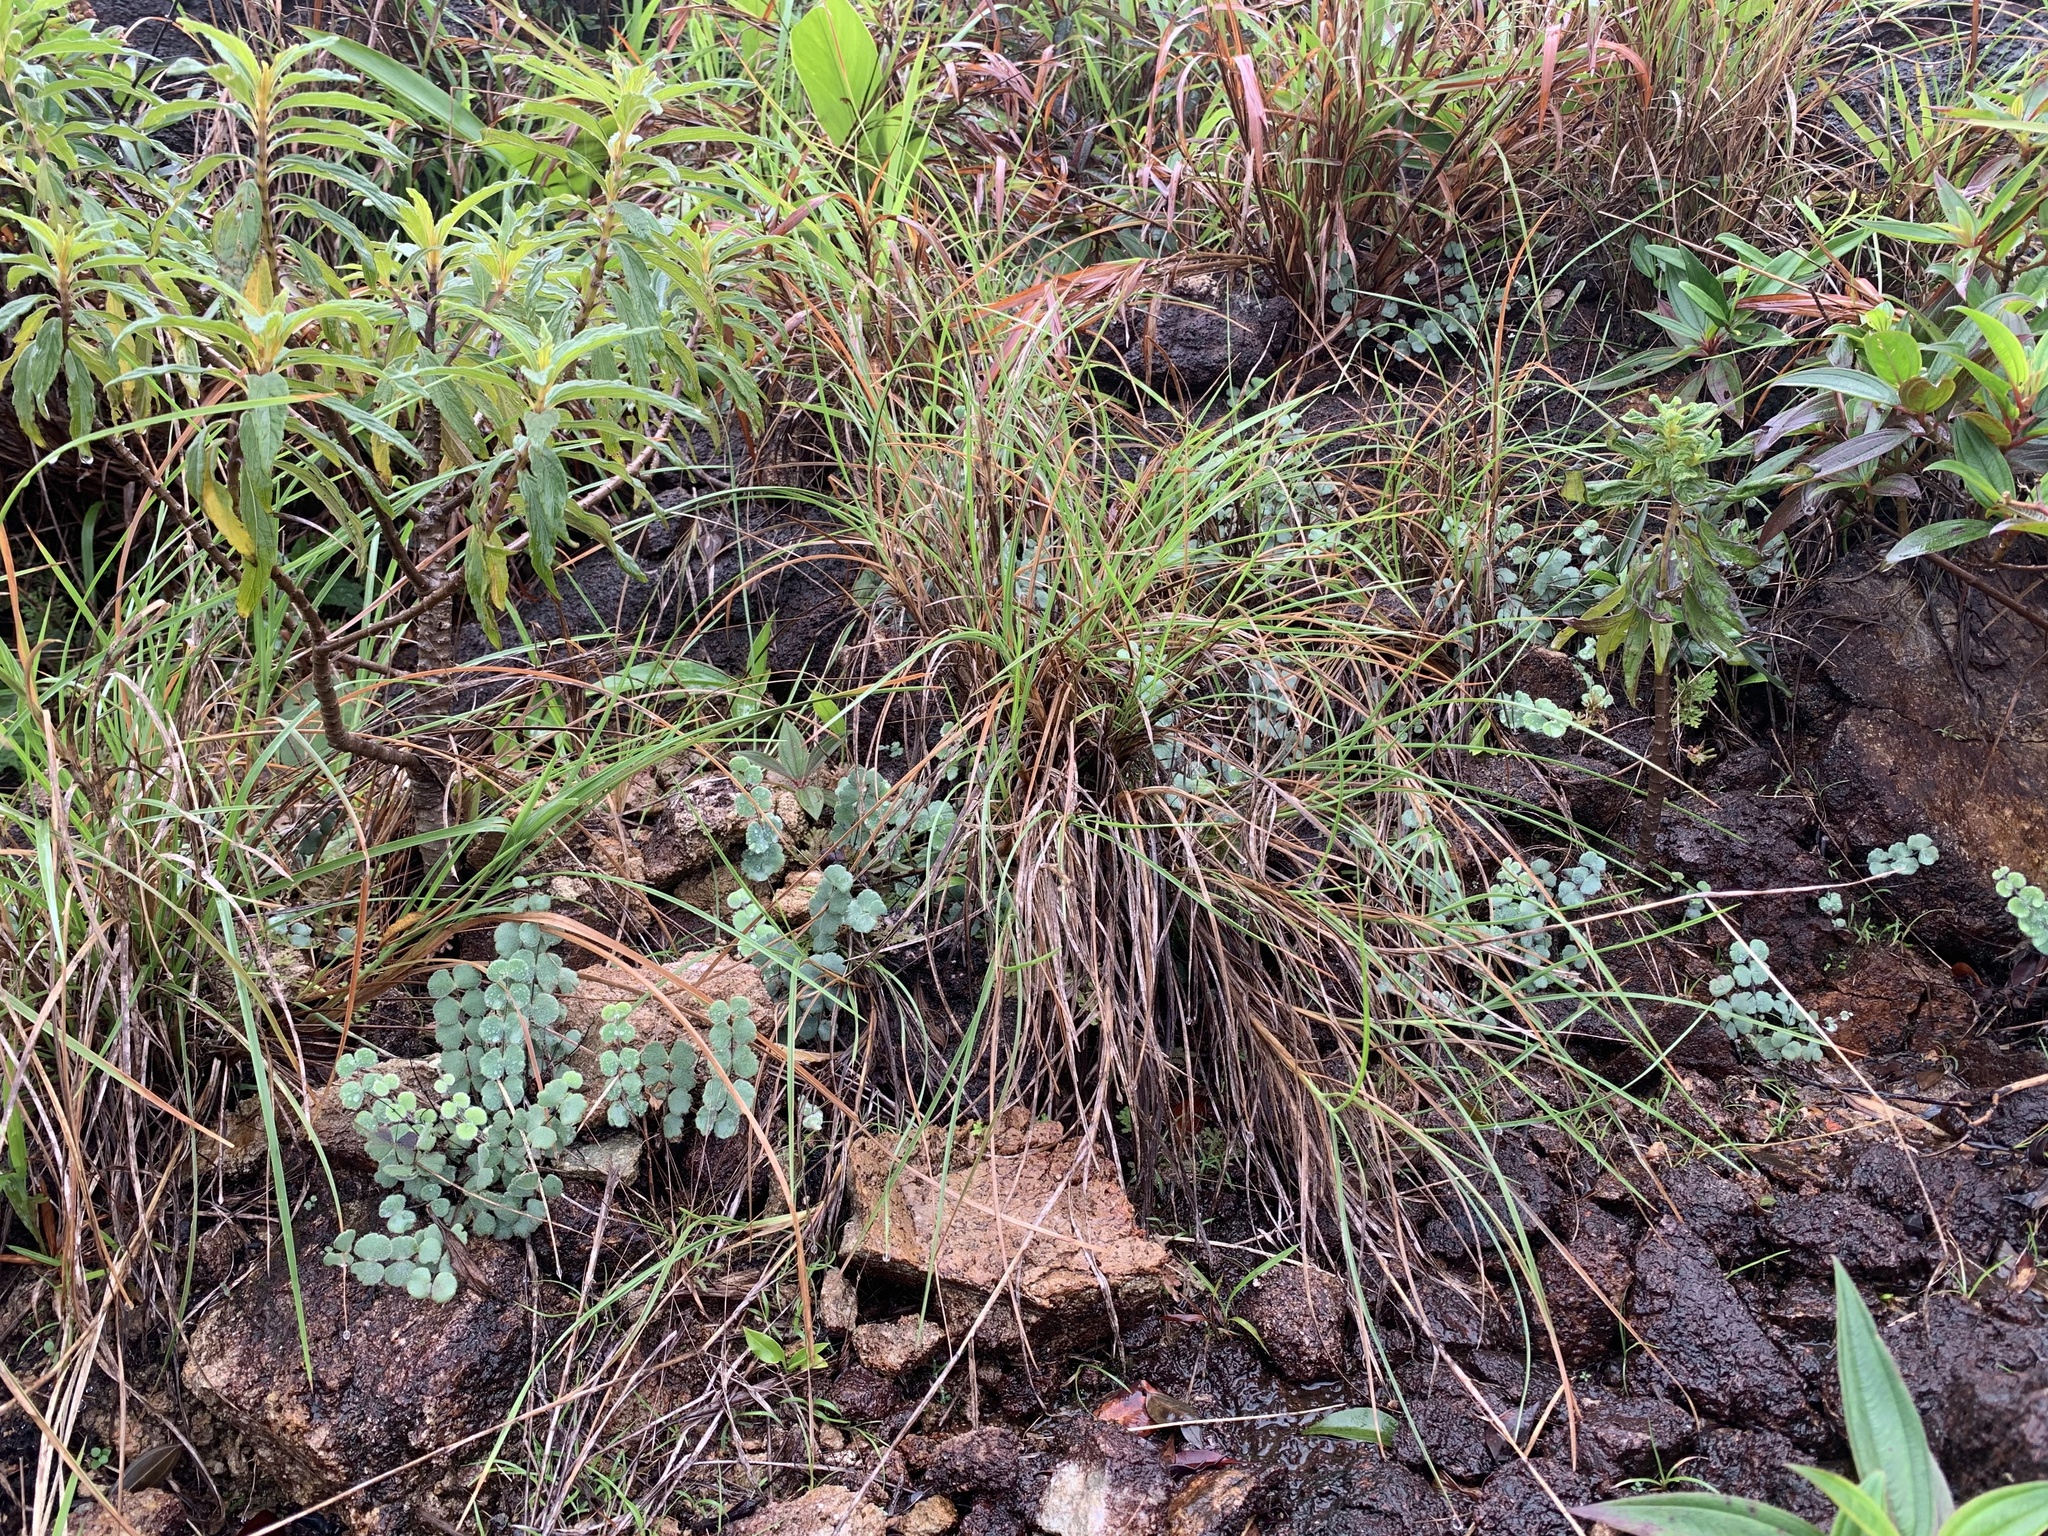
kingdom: Plantae
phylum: Tracheophyta
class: Polypodiopsida
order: Polypodiales
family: Pteridaceae
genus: Adiantum
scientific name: Adiantum thongthamii
